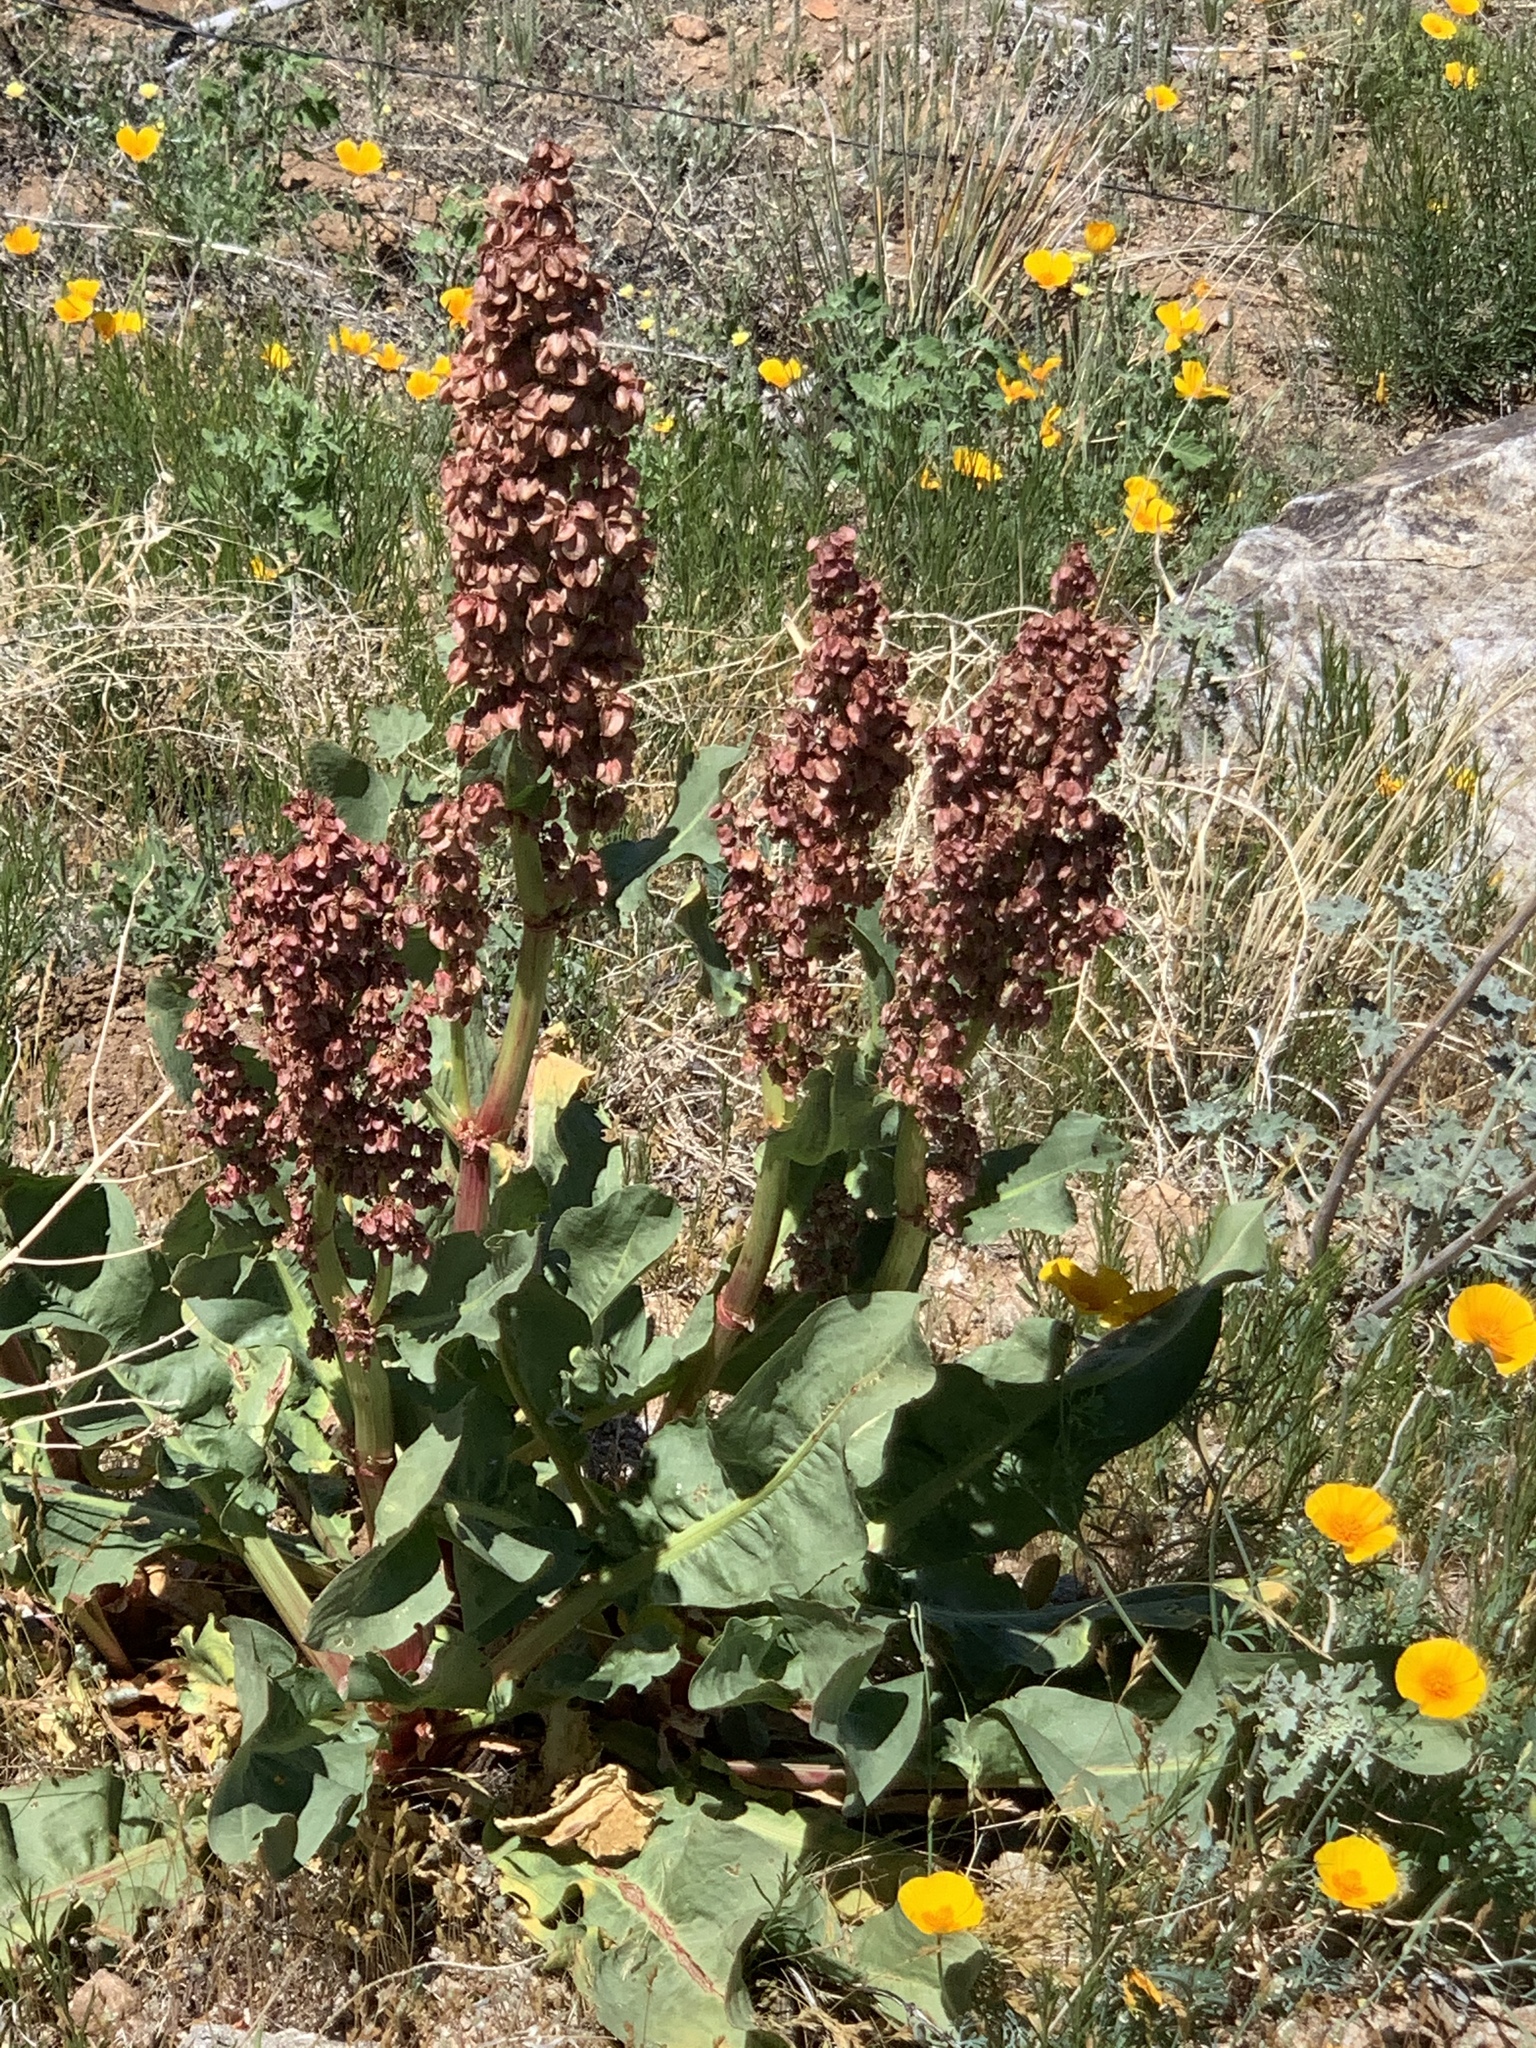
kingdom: Plantae
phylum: Tracheophyta
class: Magnoliopsida
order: Caryophyllales
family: Polygonaceae
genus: Rumex
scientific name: Rumex hymenosepalus
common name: Ganagra
